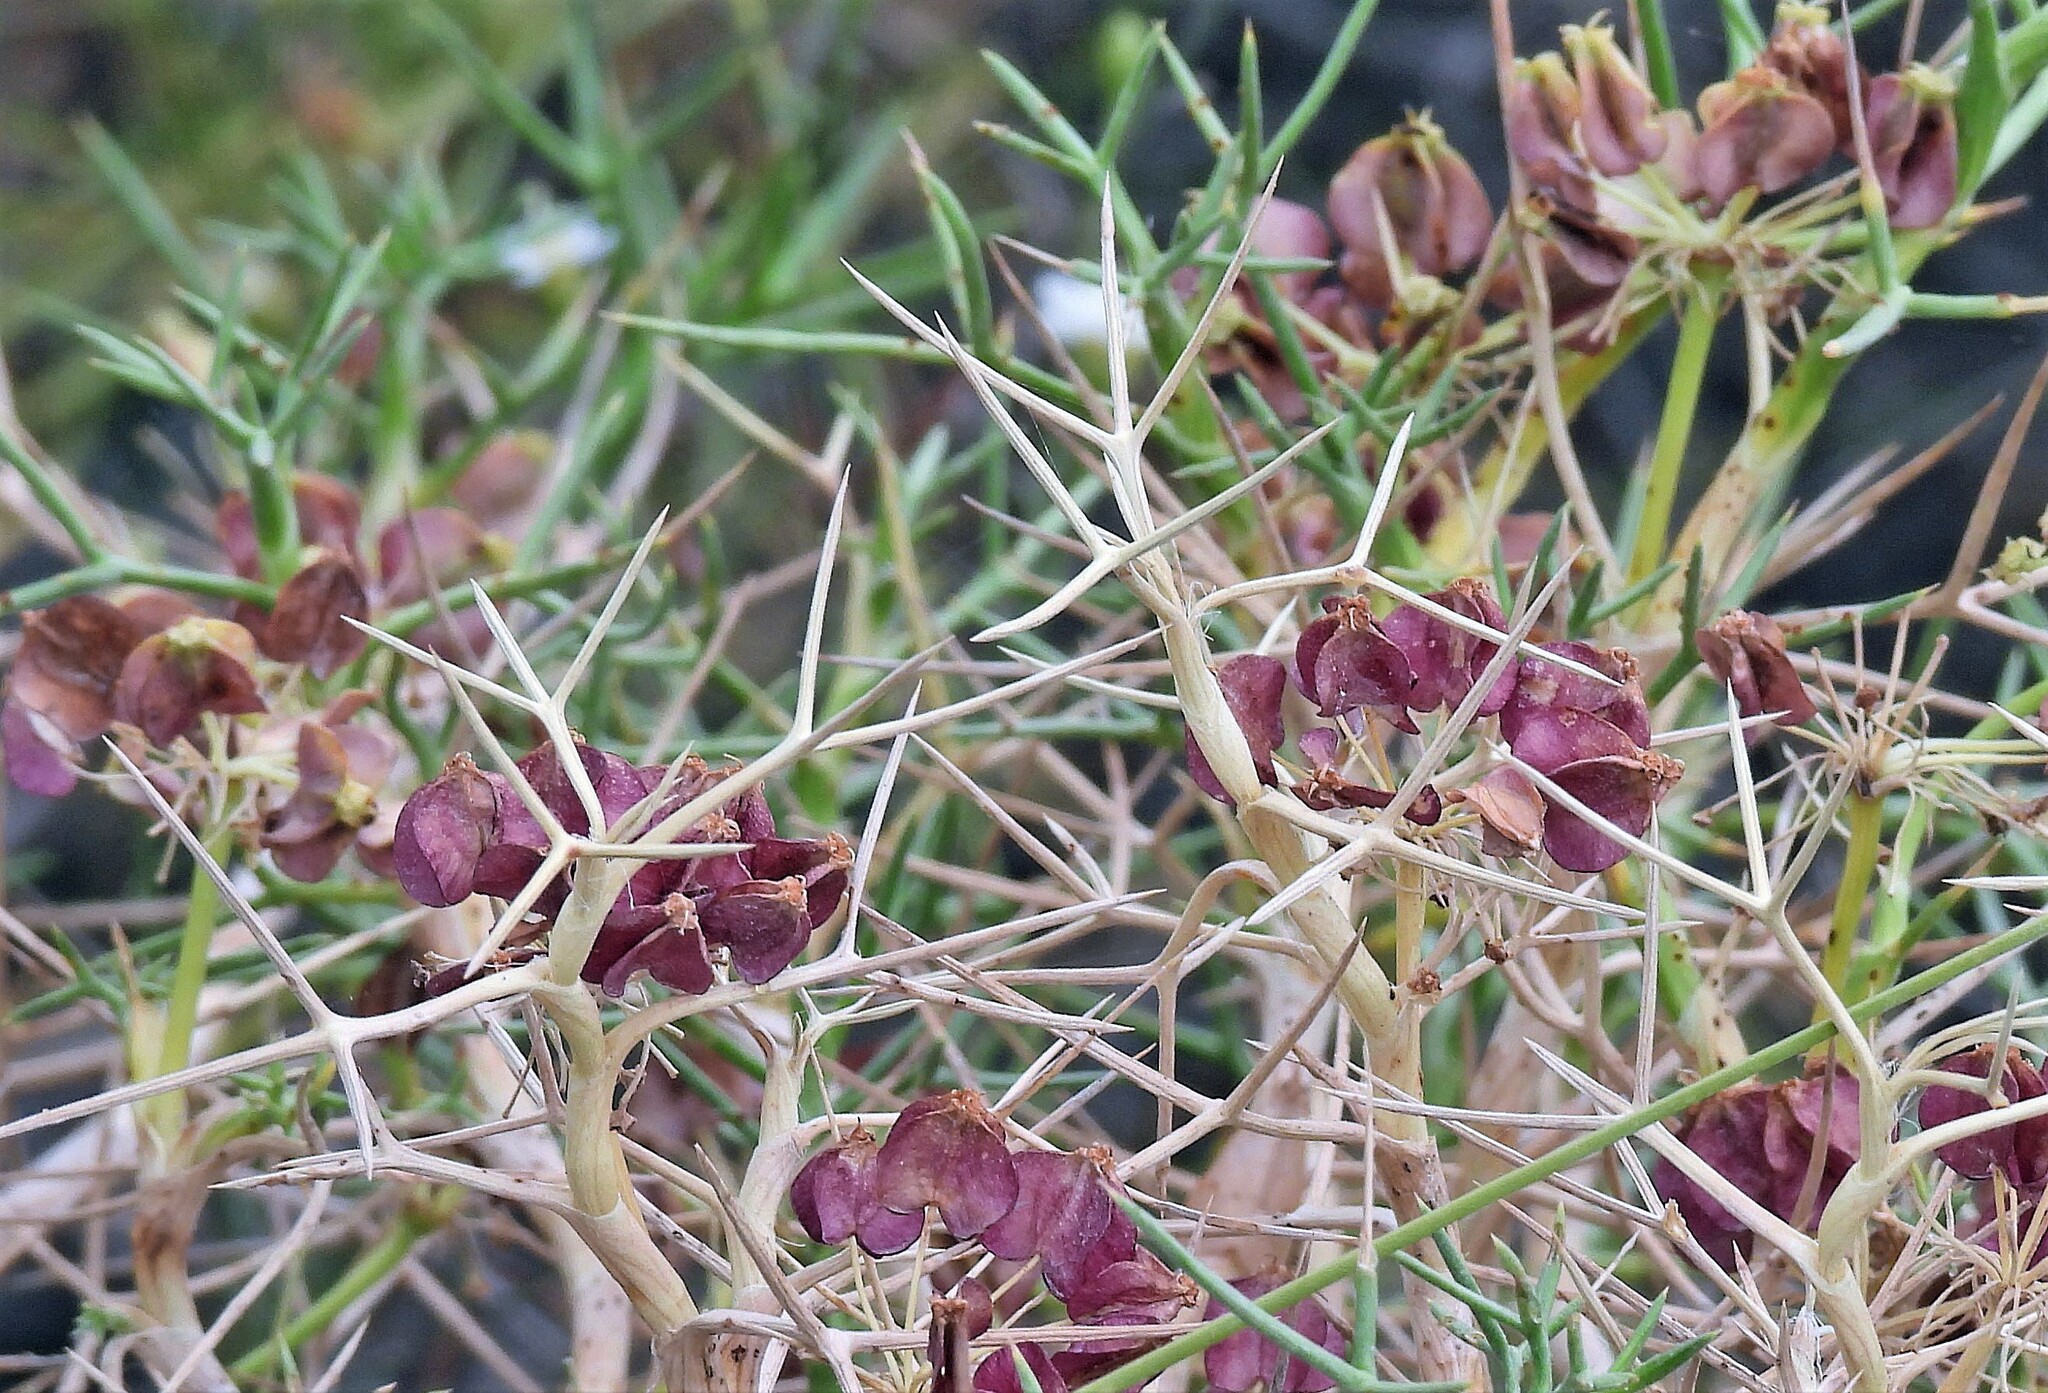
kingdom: Plantae
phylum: Tracheophyta
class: Magnoliopsida
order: Apiales
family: Apiaceae
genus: Azorella
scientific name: Azorella prolifera
